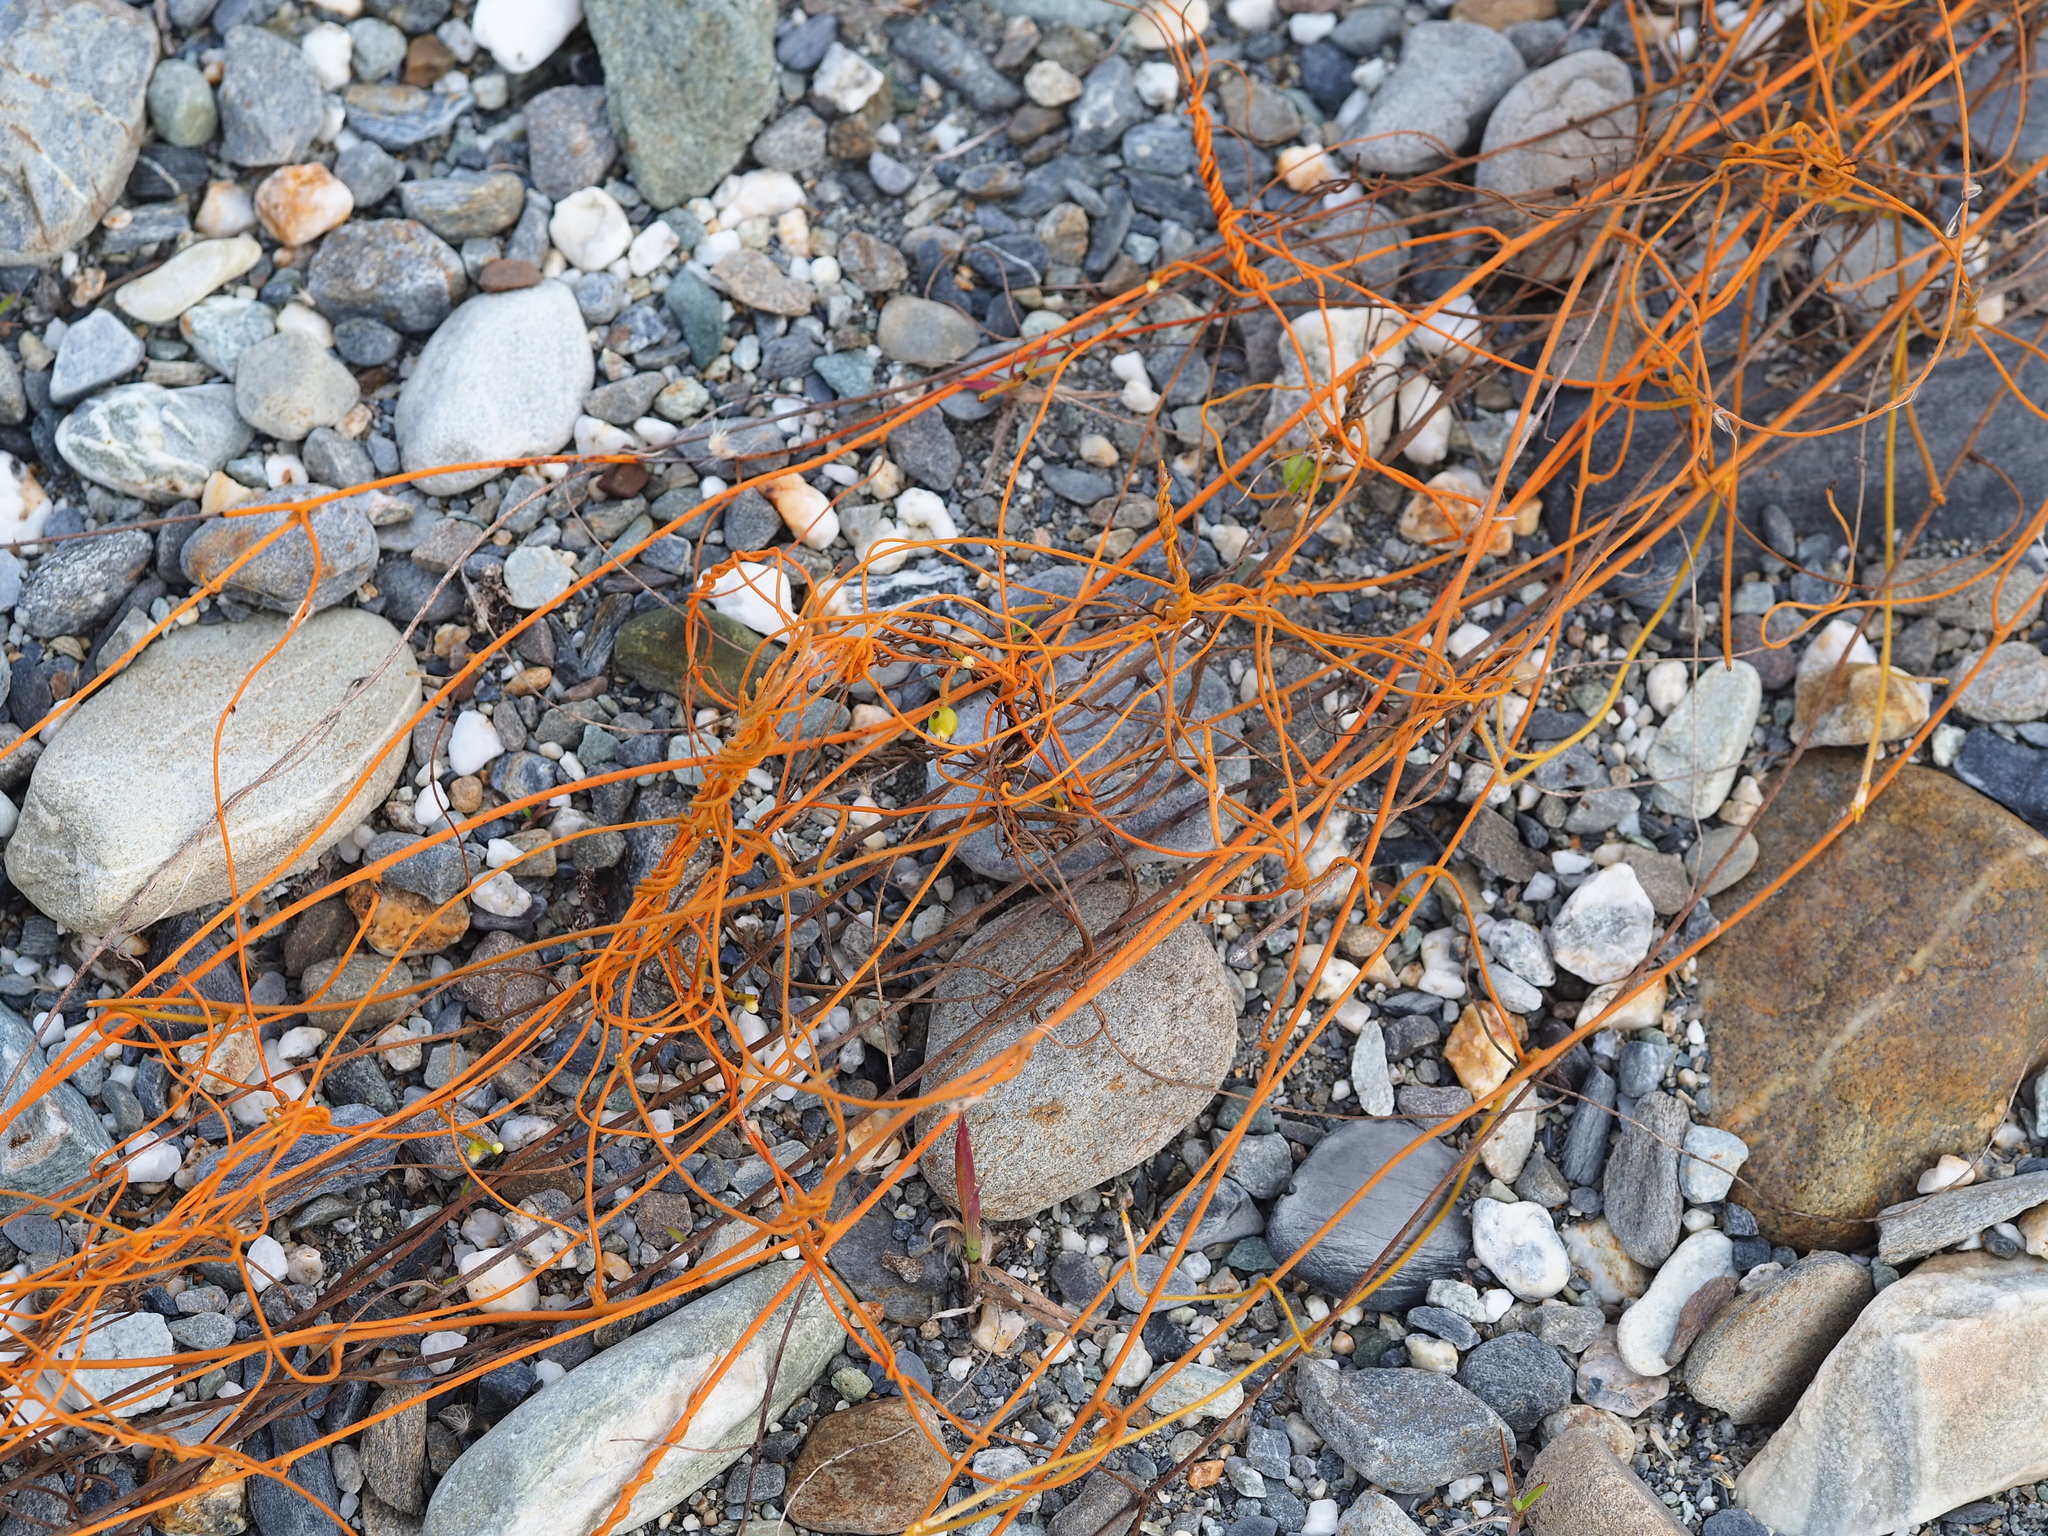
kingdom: Plantae
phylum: Tracheophyta
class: Magnoliopsida
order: Laurales
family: Lauraceae
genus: Cassytha
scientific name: Cassytha filiformis
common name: Dodder-laurel
